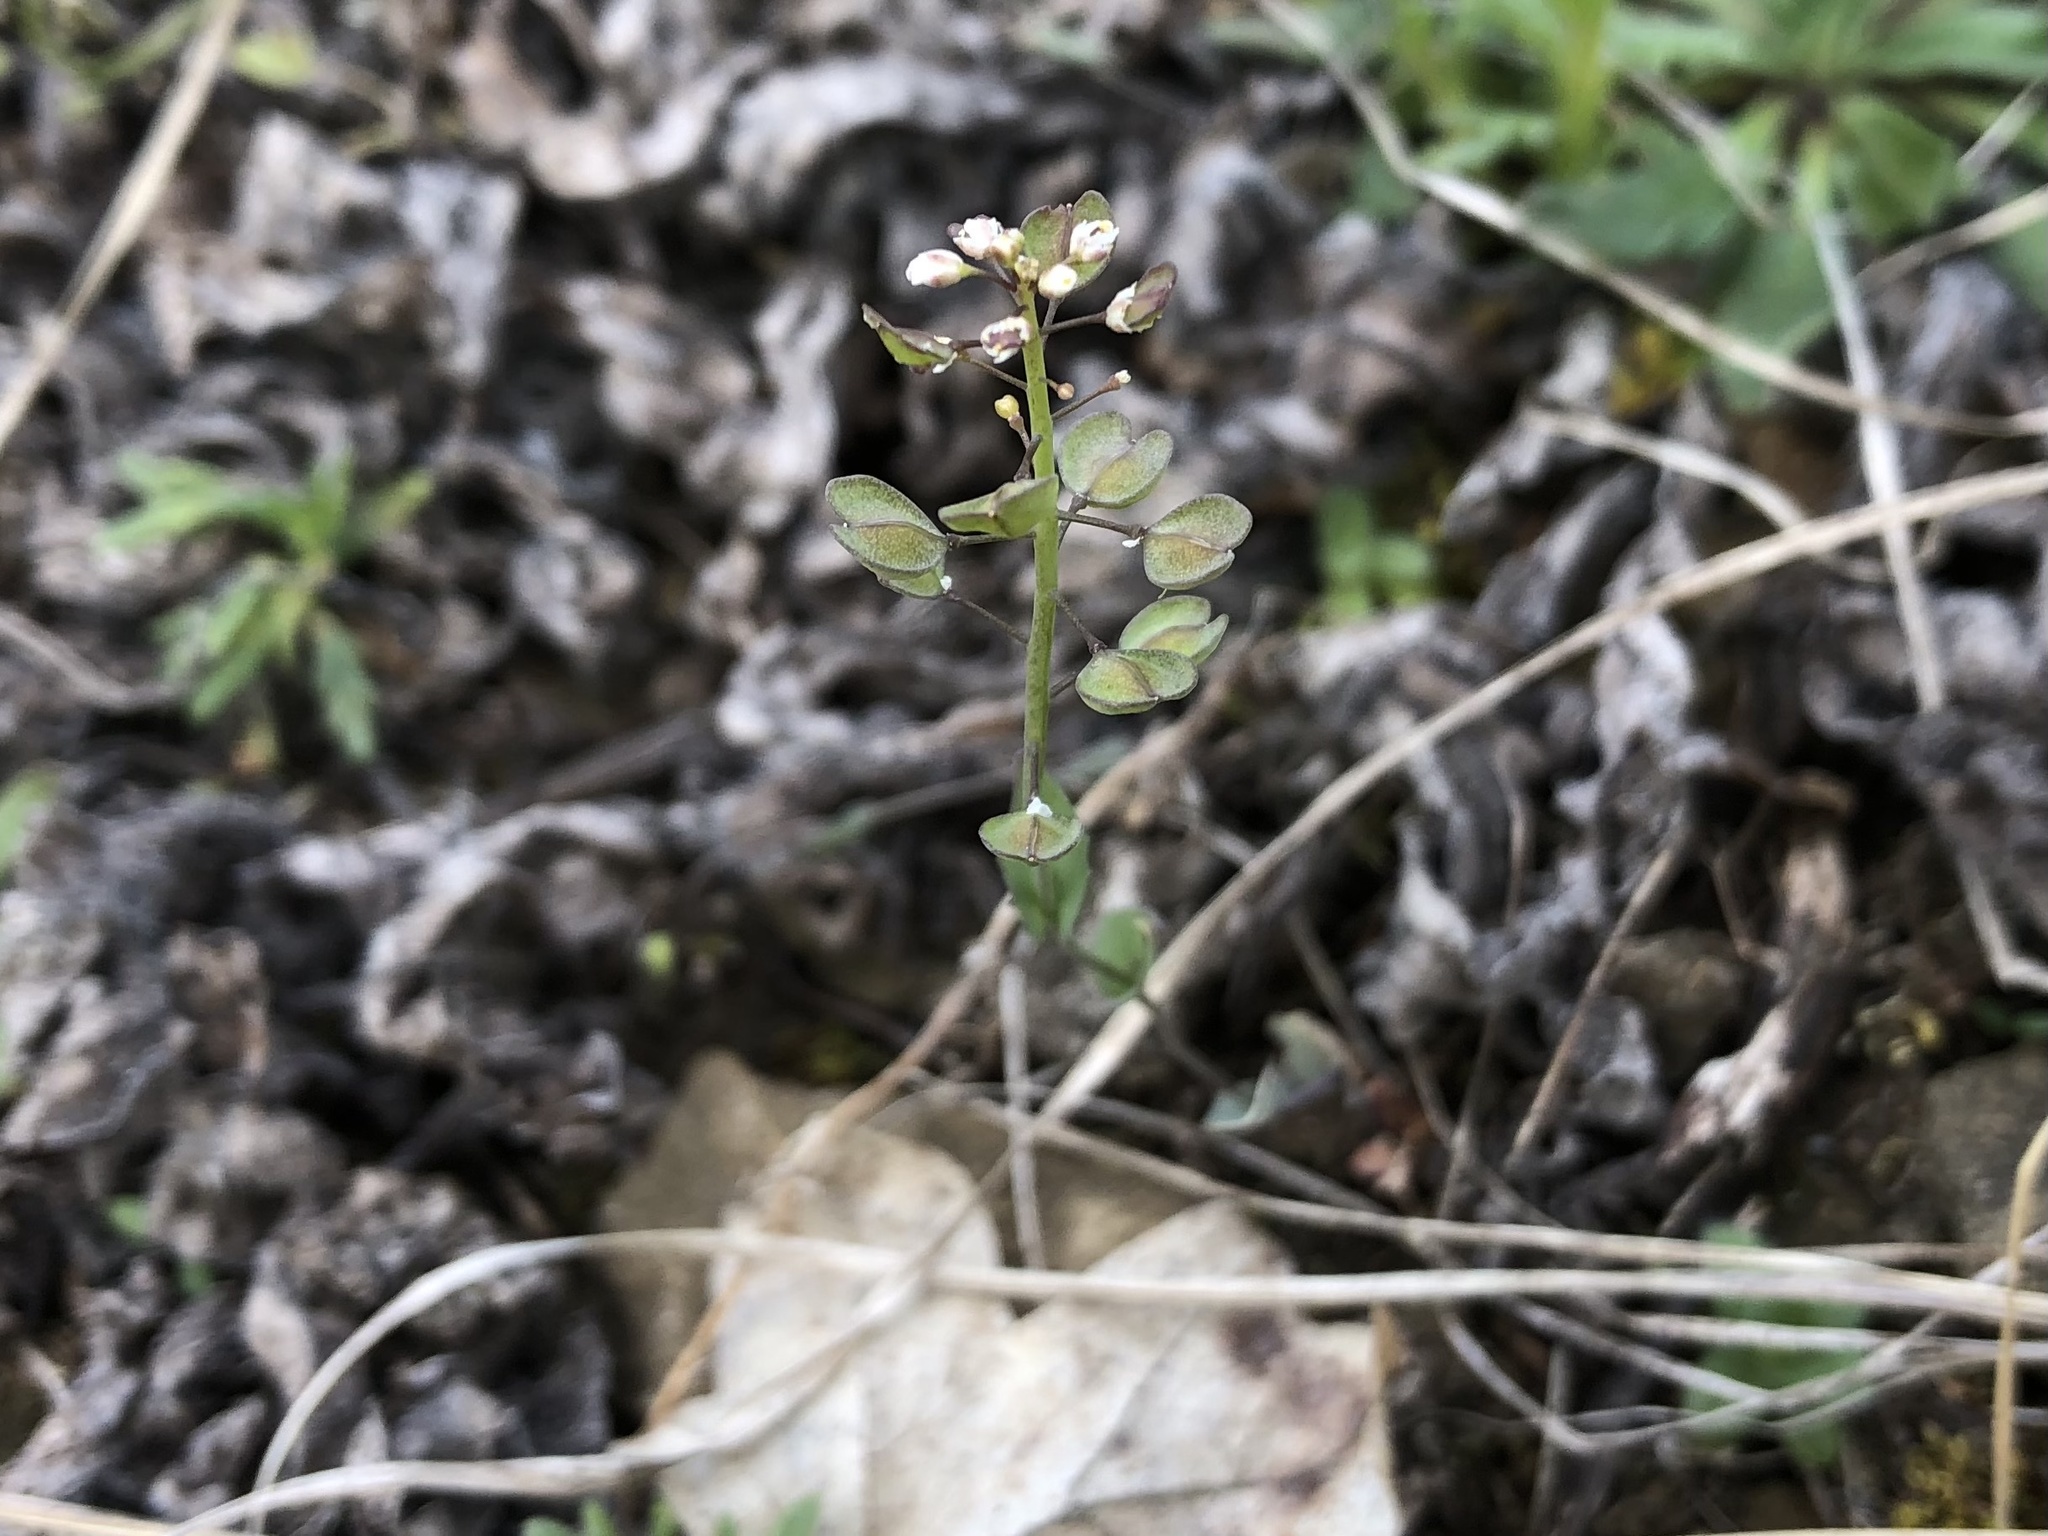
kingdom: Plantae
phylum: Tracheophyta
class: Magnoliopsida
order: Brassicales
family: Brassicaceae
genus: Noccaea
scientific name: Noccaea perfoliata
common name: Perfoliate pennycress
